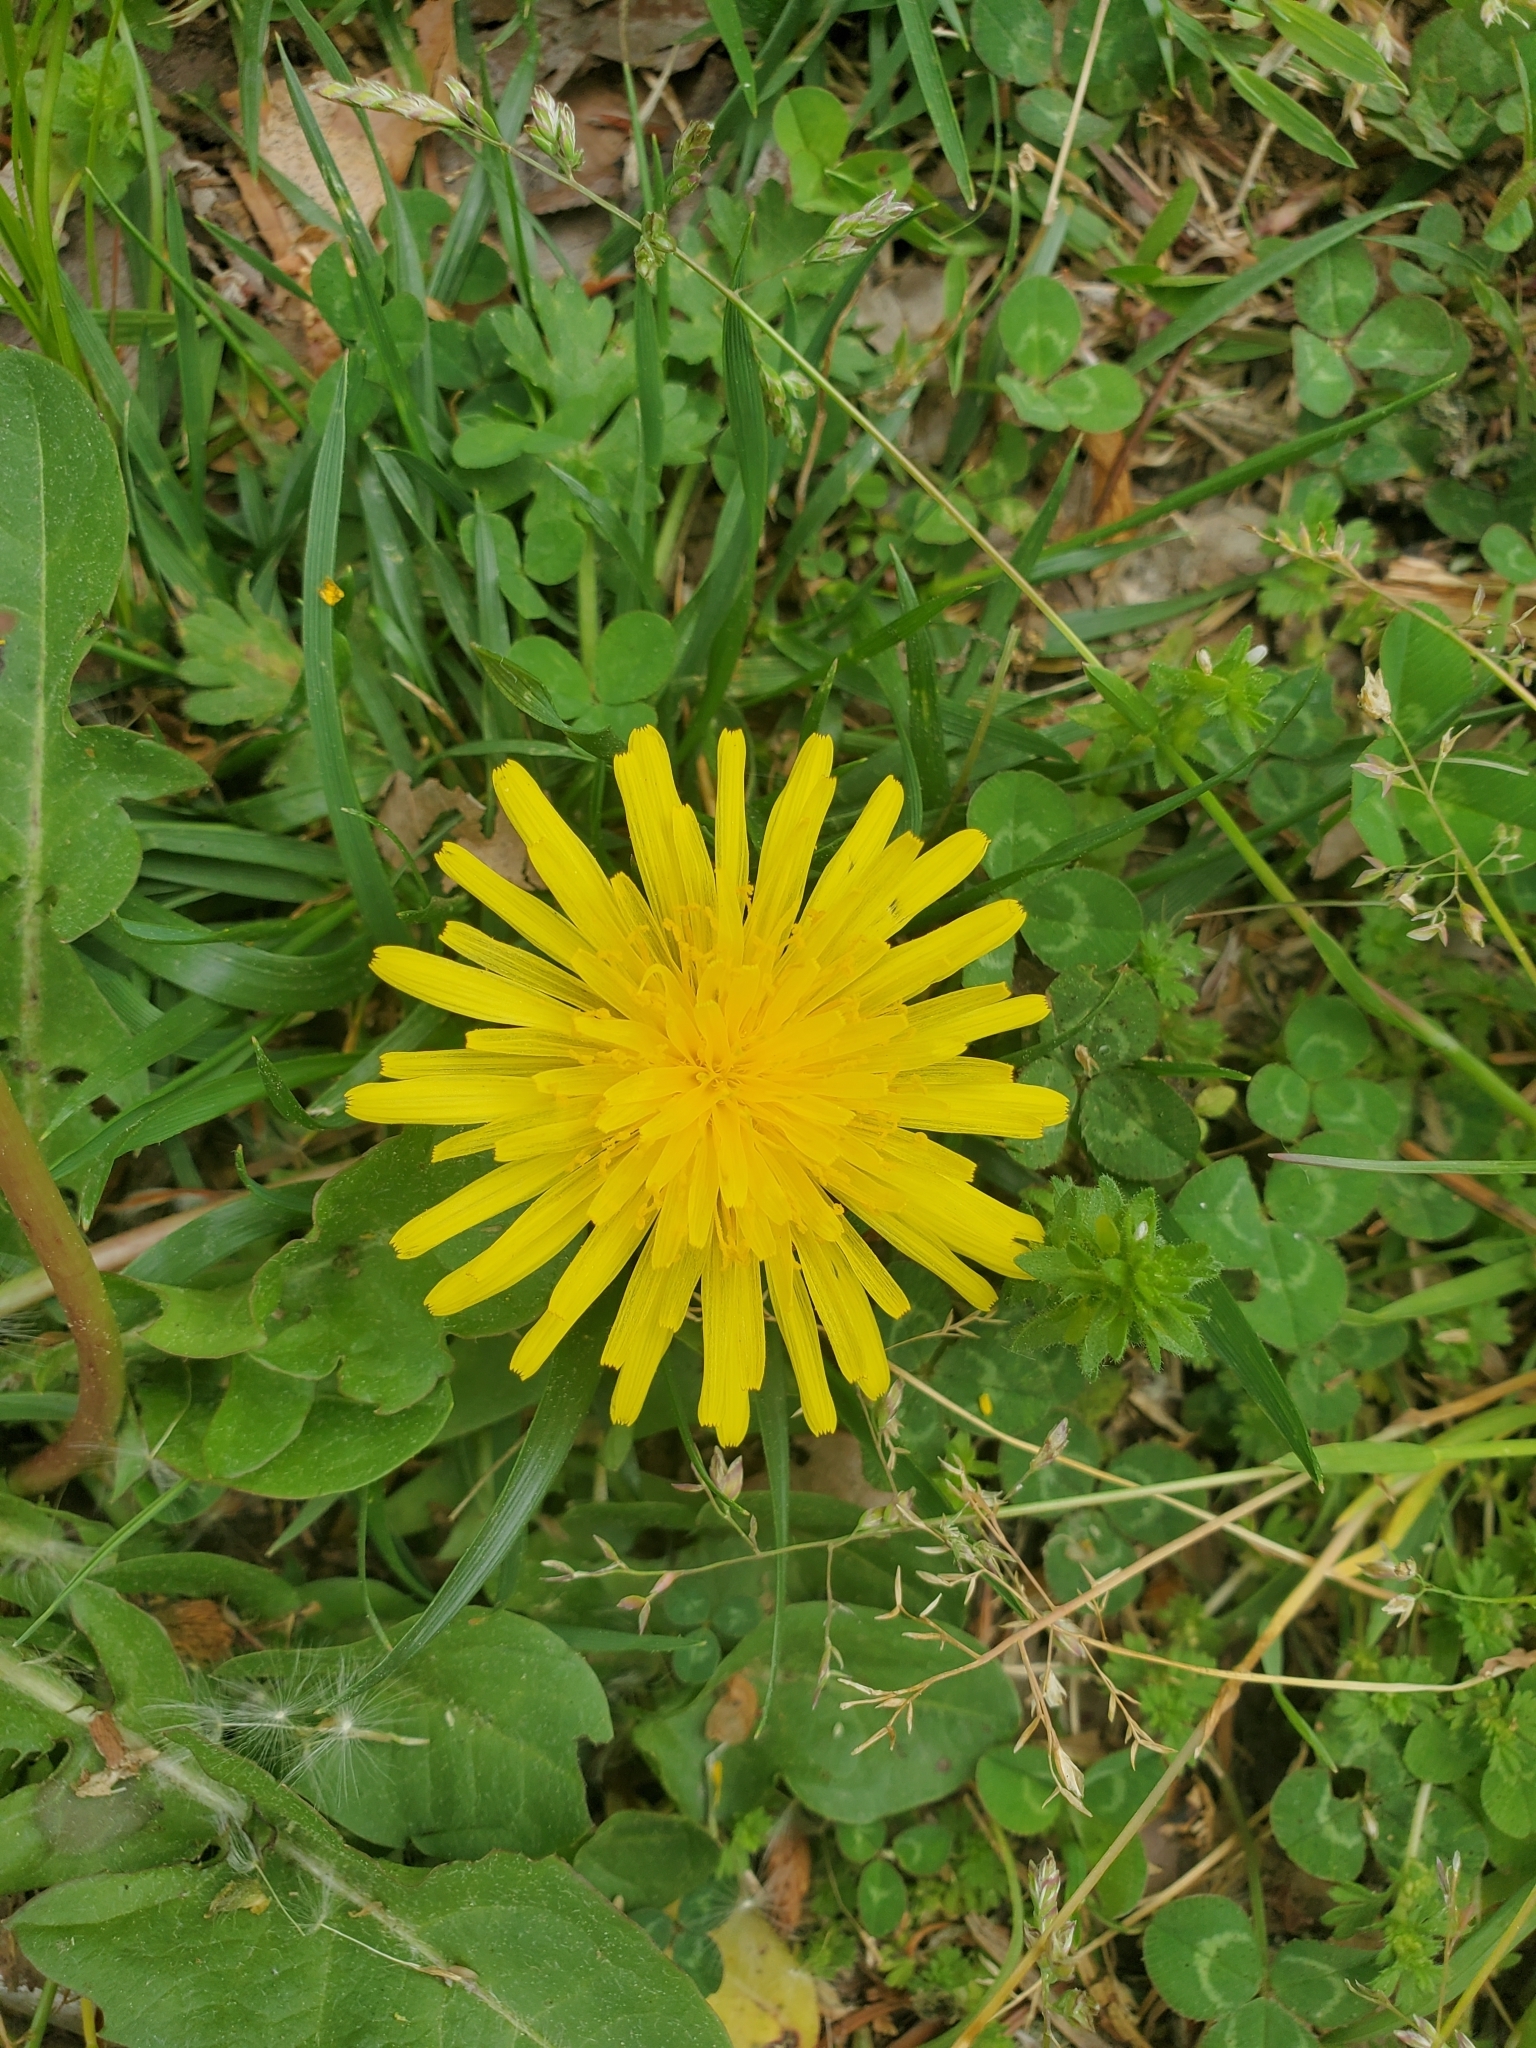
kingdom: Plantae
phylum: Tracheophyta
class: Magnoliopsida
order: Asterales
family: Asteraceae
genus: Taraxacum
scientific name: Taraxacum officinale
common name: Common dandelion
